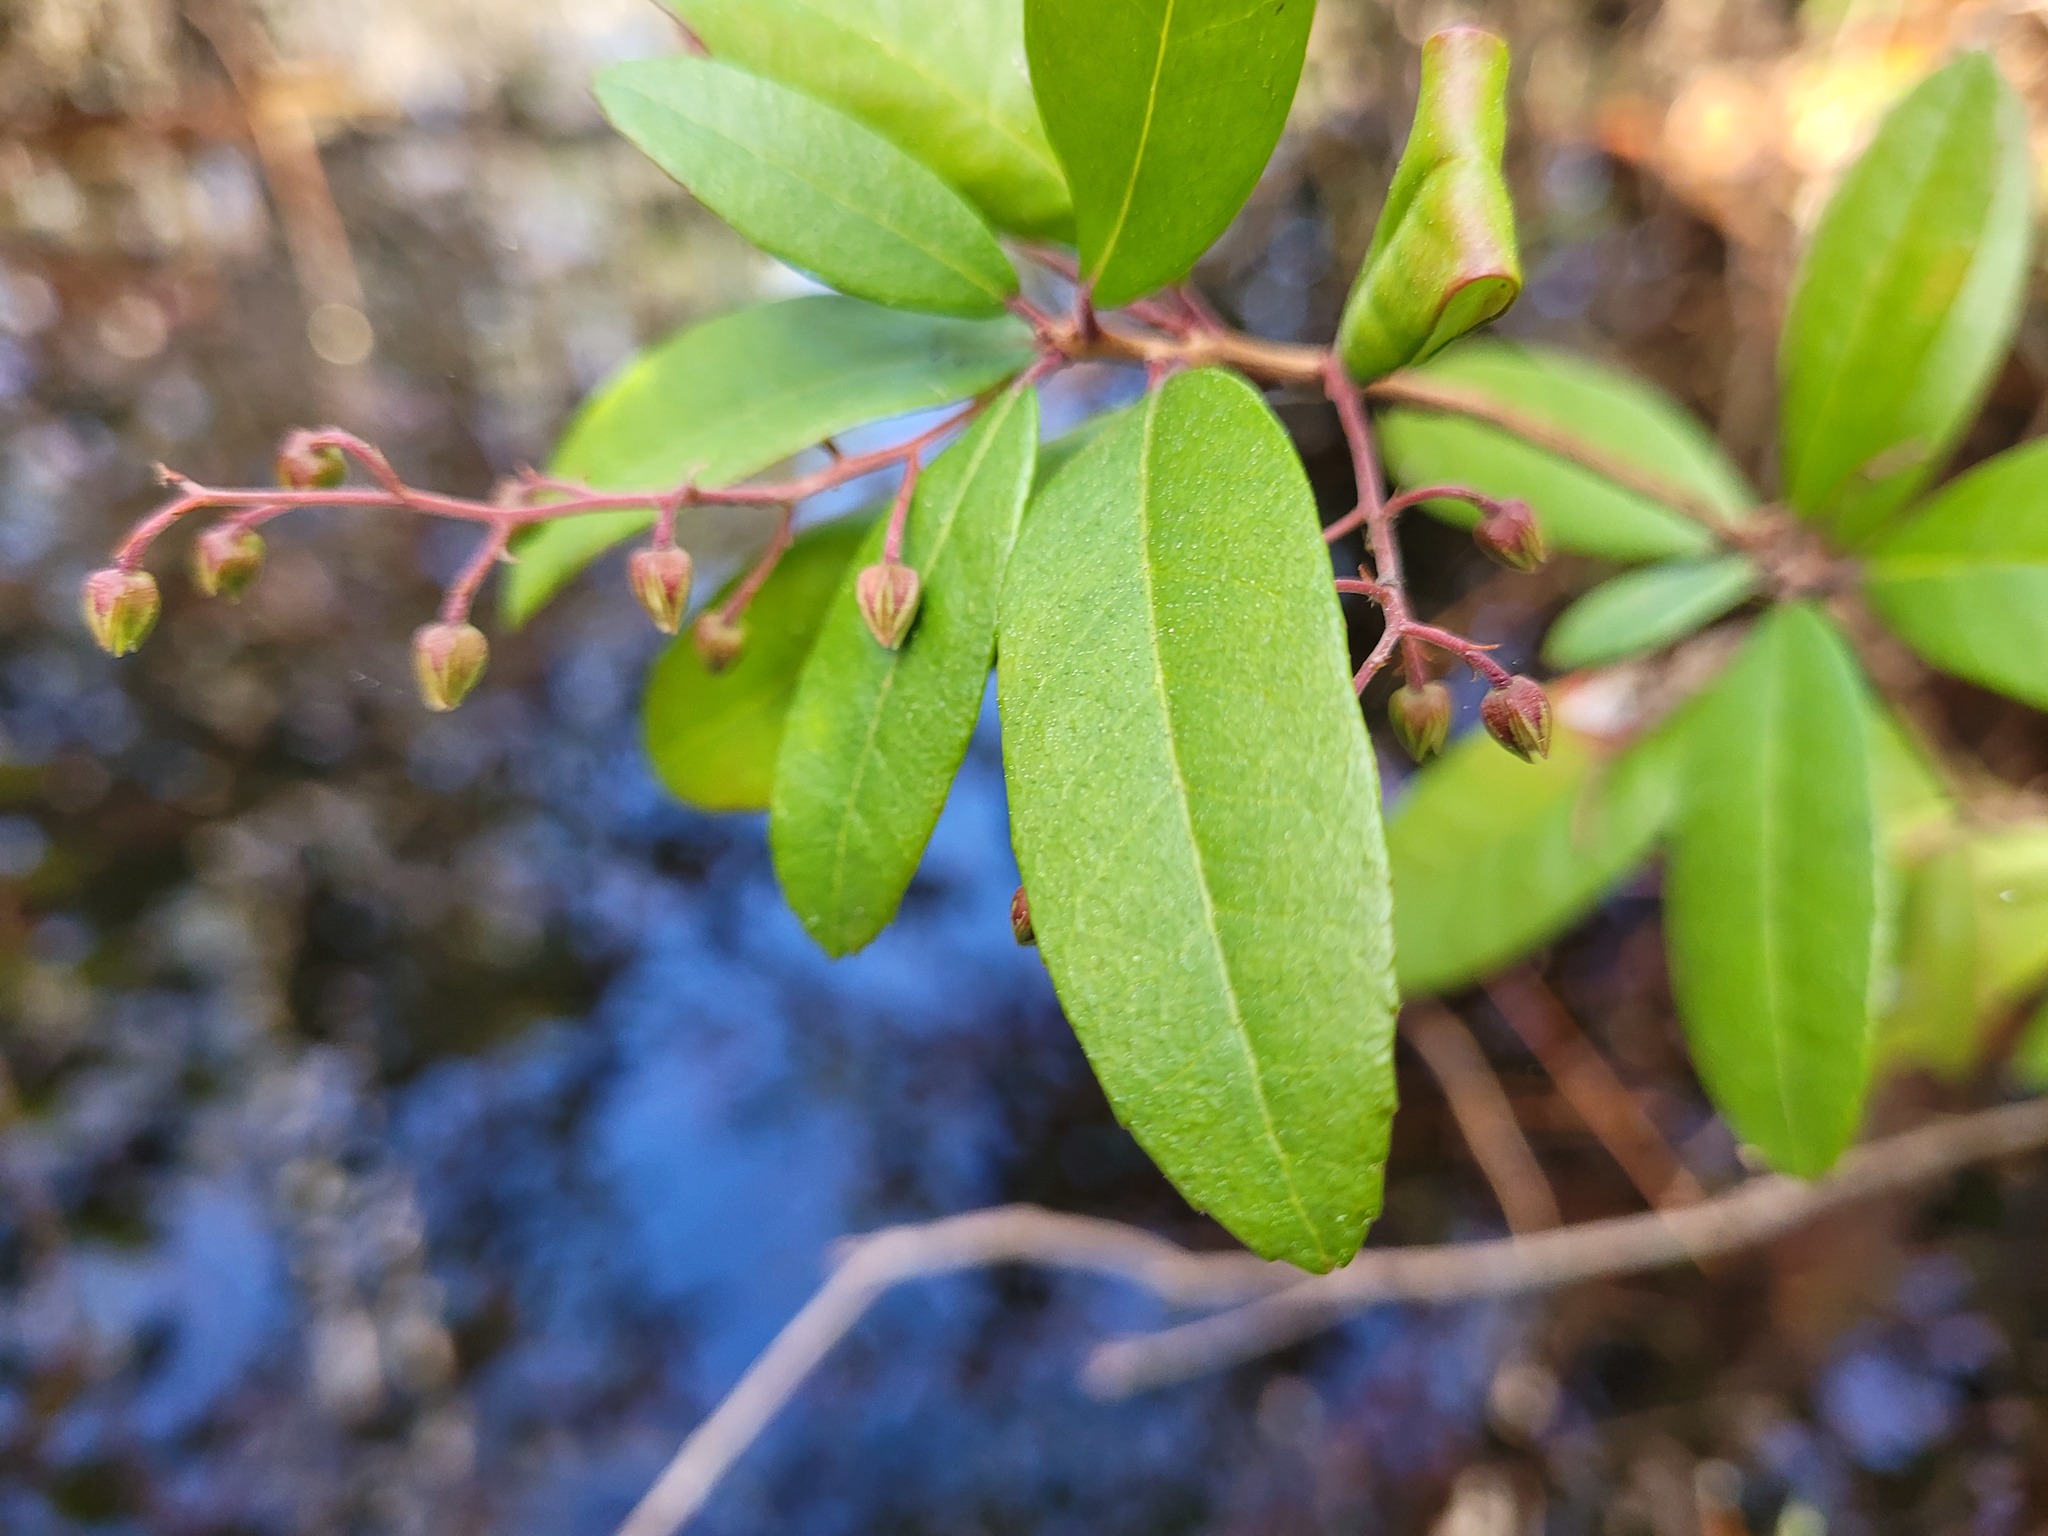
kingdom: Plantae
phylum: Tracheophyta
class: Magnoliopsida
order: Ericales
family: Ericaceae
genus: Pieris
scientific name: Pieris phillyreifolia
